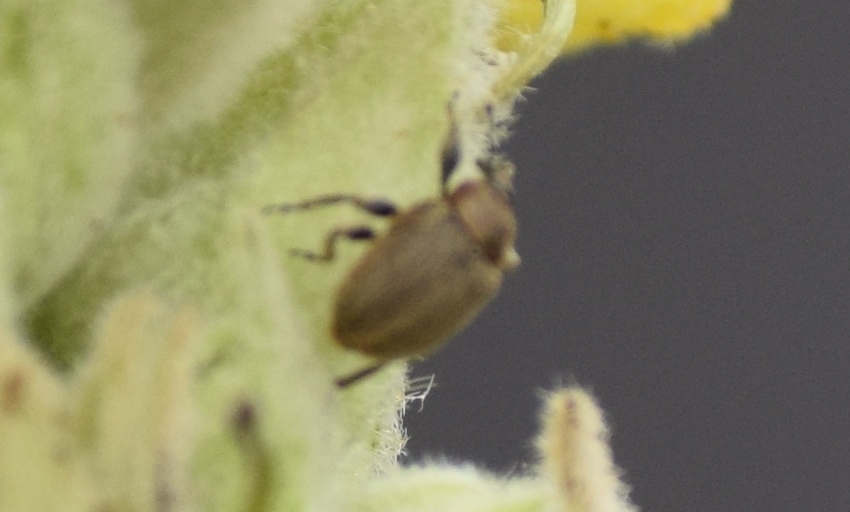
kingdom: Animalia
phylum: Arthropoda
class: Insecta
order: Coleoptera
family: Curculionidae
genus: Sibinia
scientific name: Sibinia pellucens
